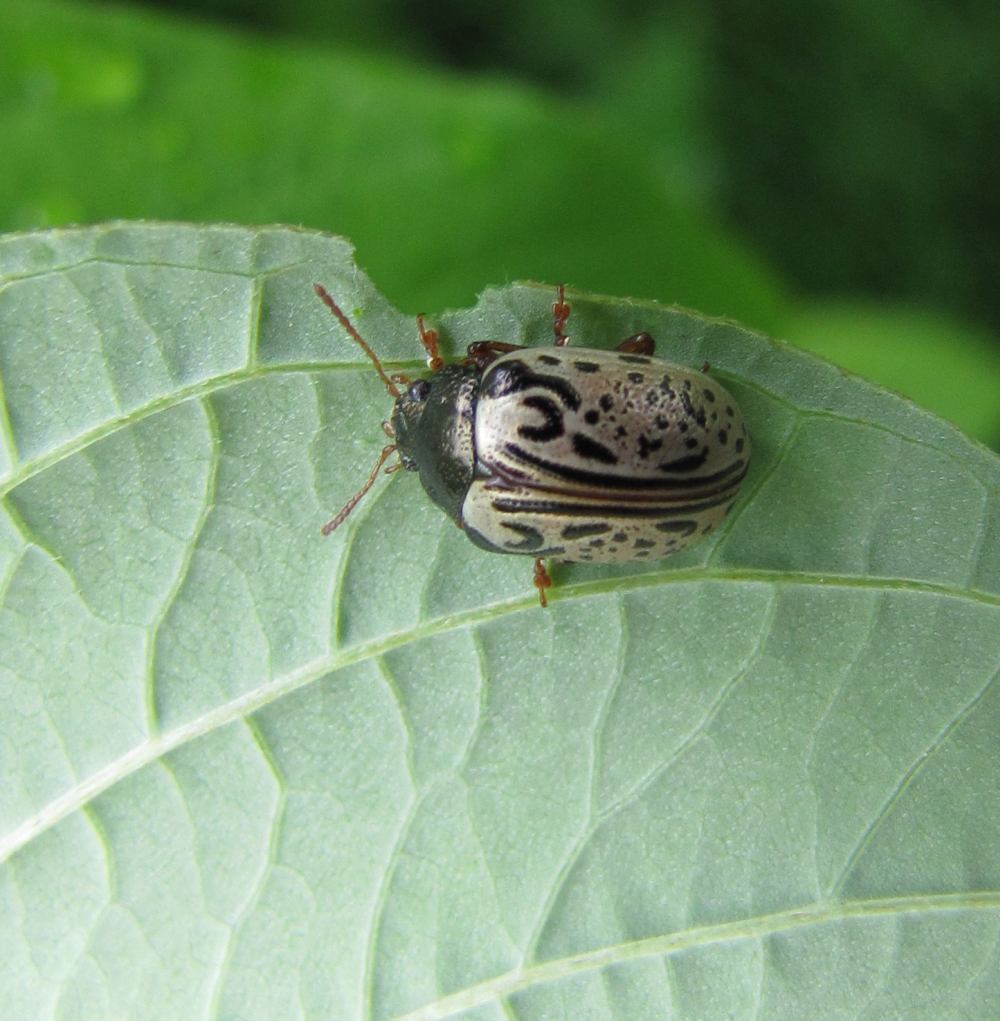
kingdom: Animalia
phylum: Arthropoda
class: Insecta
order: Coleoptera
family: Chrysomelidae
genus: Calligrapha
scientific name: Calligrapha philadelphica
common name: Dogwood leaf beetle
